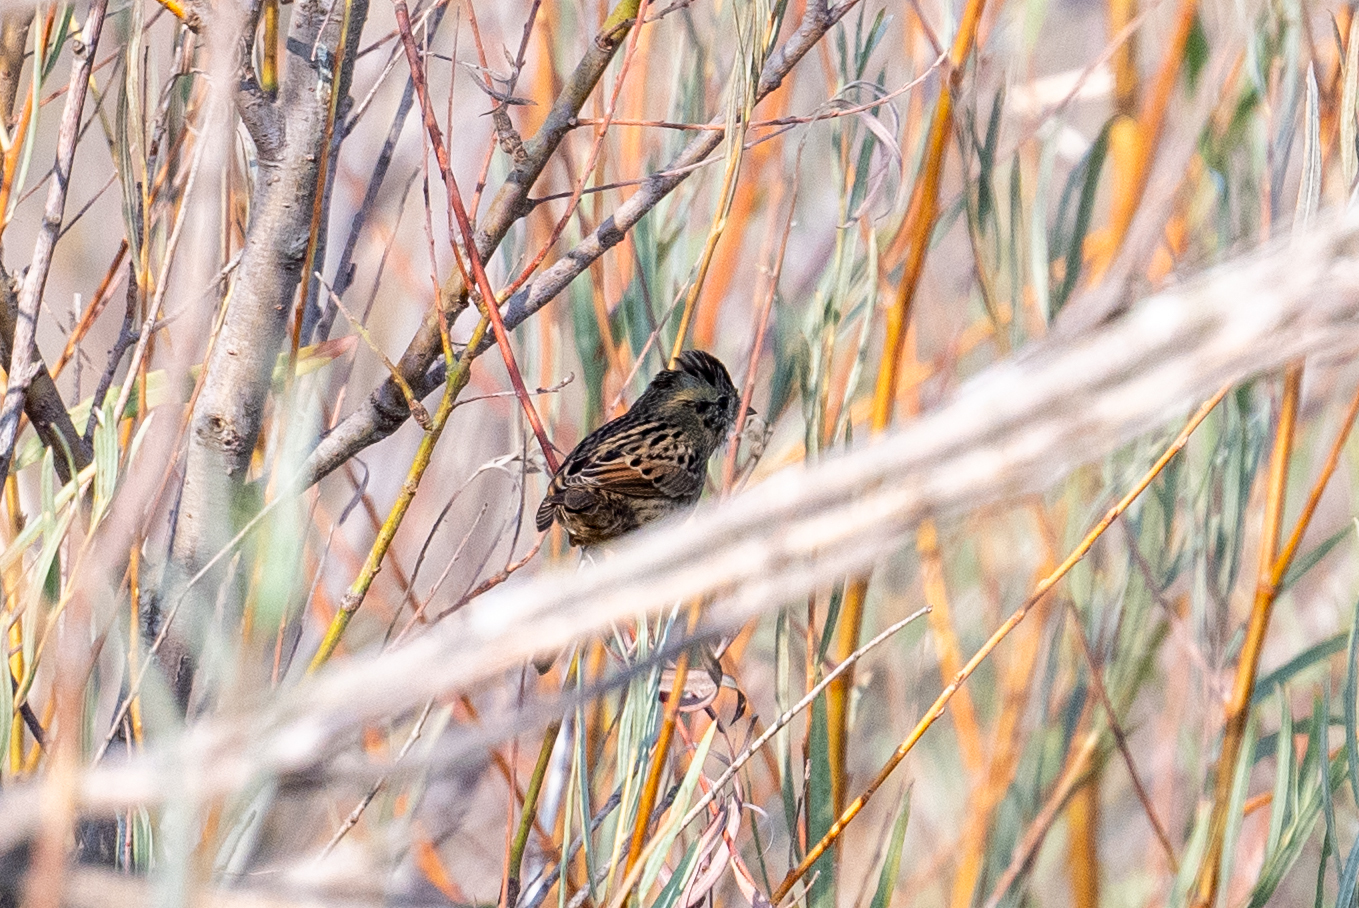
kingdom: Animalia
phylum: Chordata
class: Aves
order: Passeriformes
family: Passerellidae
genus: Melospiza
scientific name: Melospiza lincolnii
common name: Lincoln's sparrow
